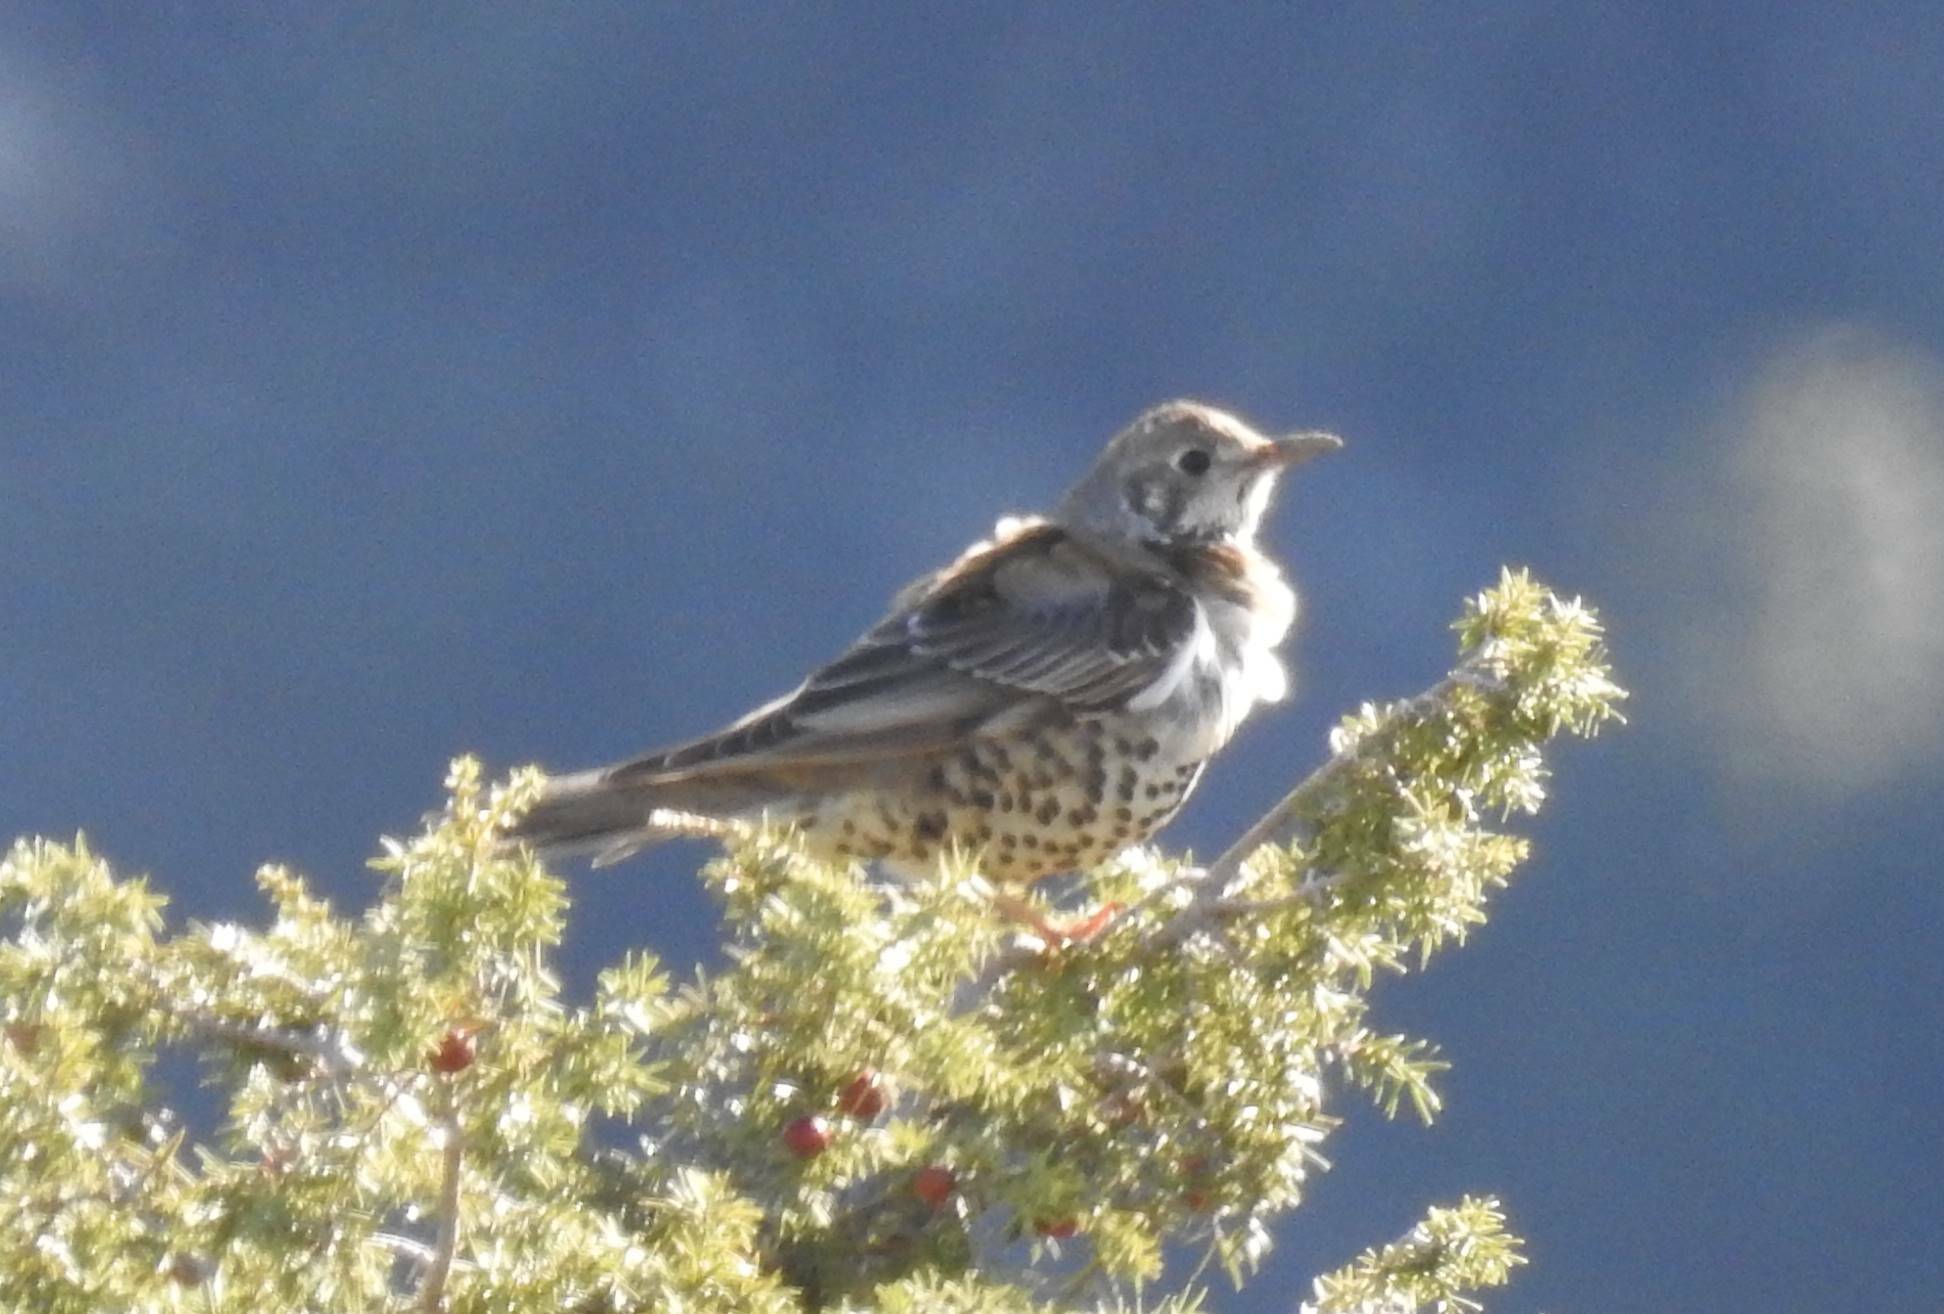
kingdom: Animalia
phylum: Chordata
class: Aves
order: Passeriformes
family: Turdidae
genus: Turdus
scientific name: Turdus viscivorus
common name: Mistle thrush
